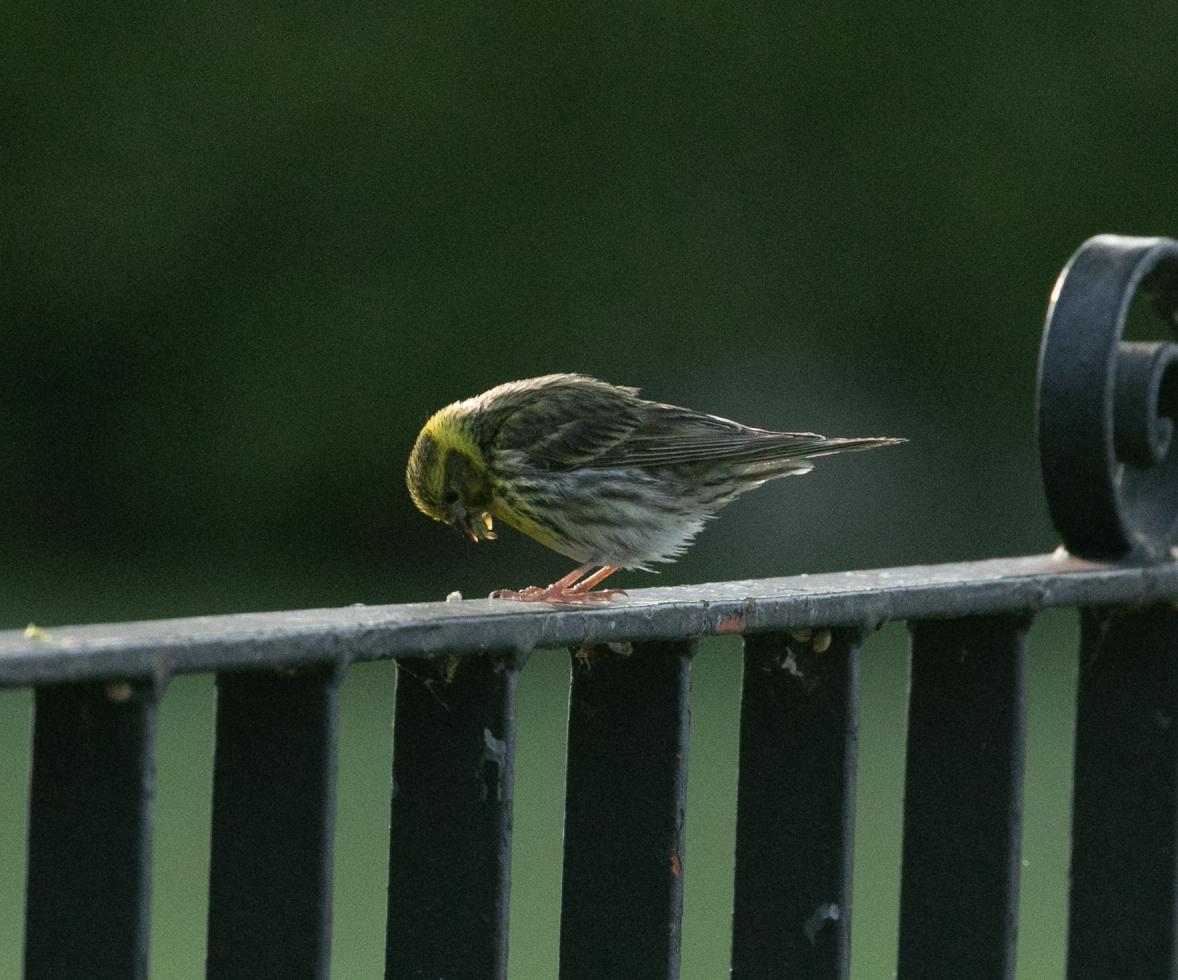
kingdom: Animalia
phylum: Chordata
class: Aves
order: Passeriformes
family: Fringillidae
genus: Serinus
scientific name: Serinus serinus
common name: European serin
